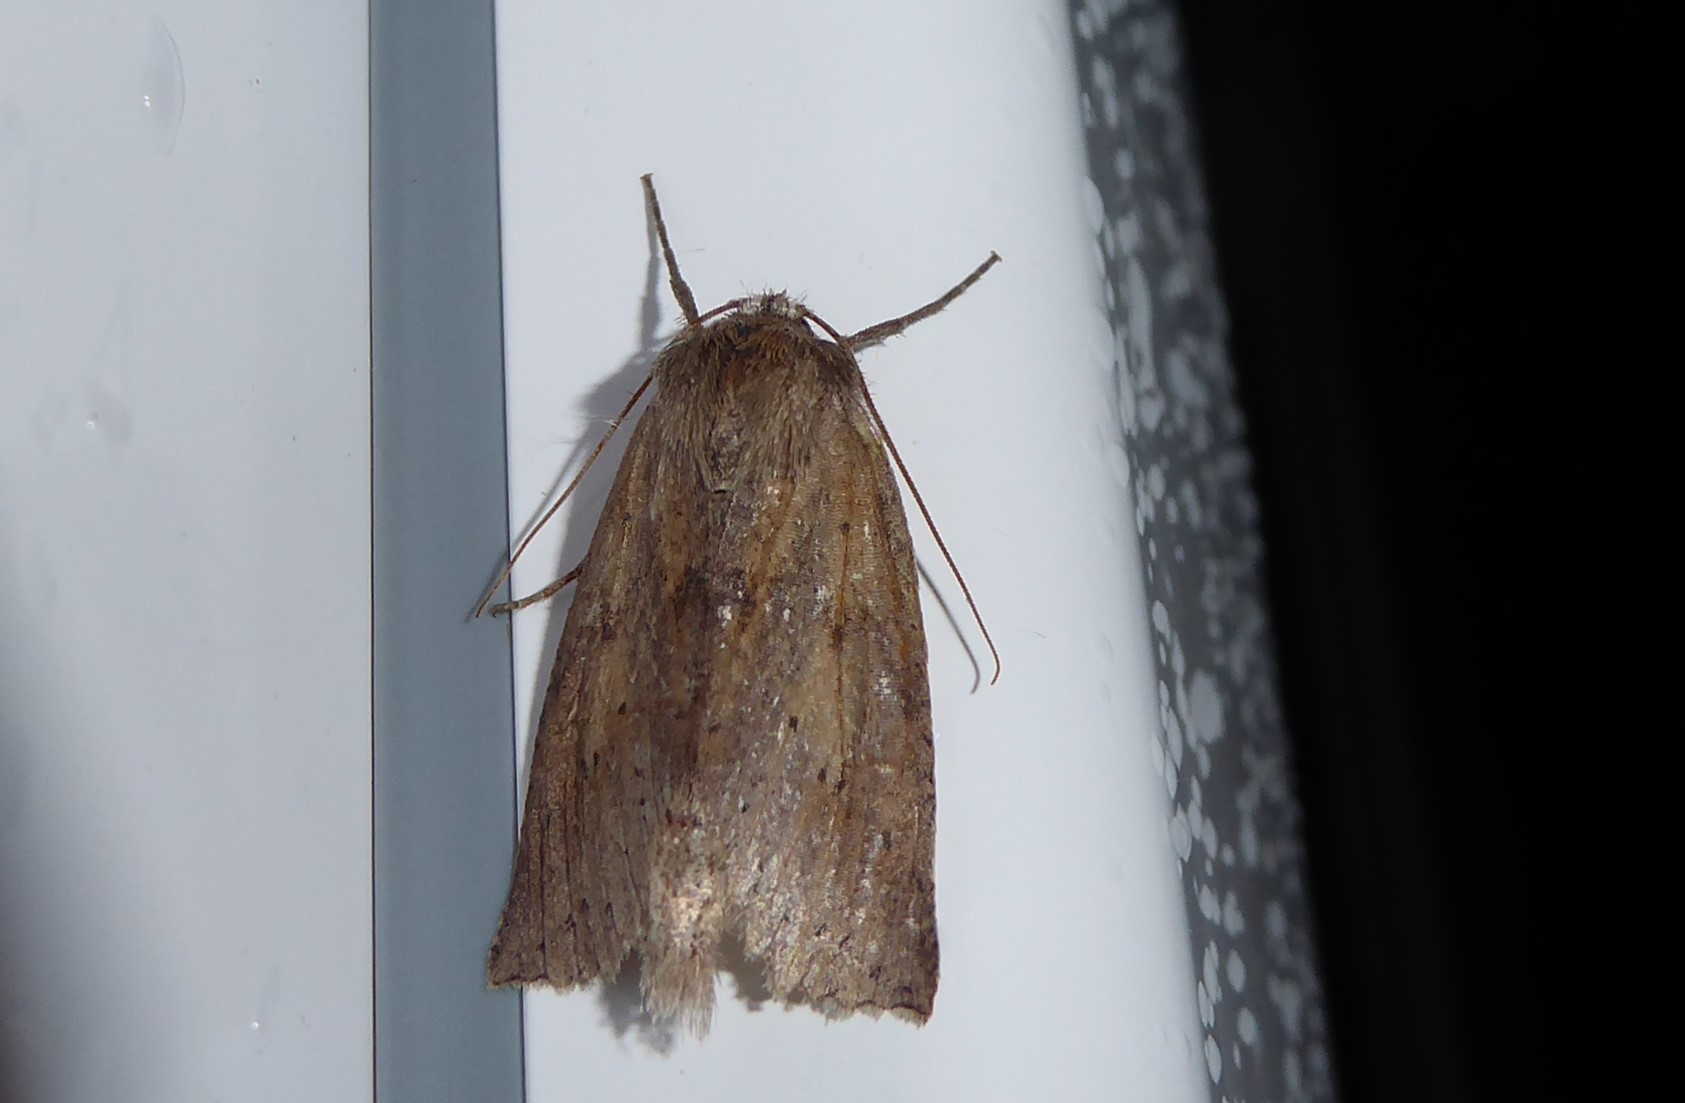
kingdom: Animalia
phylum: Arthropoda
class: Insecta
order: Lepidoptera
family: Geometridae
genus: Declana
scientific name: Declana leptomera
